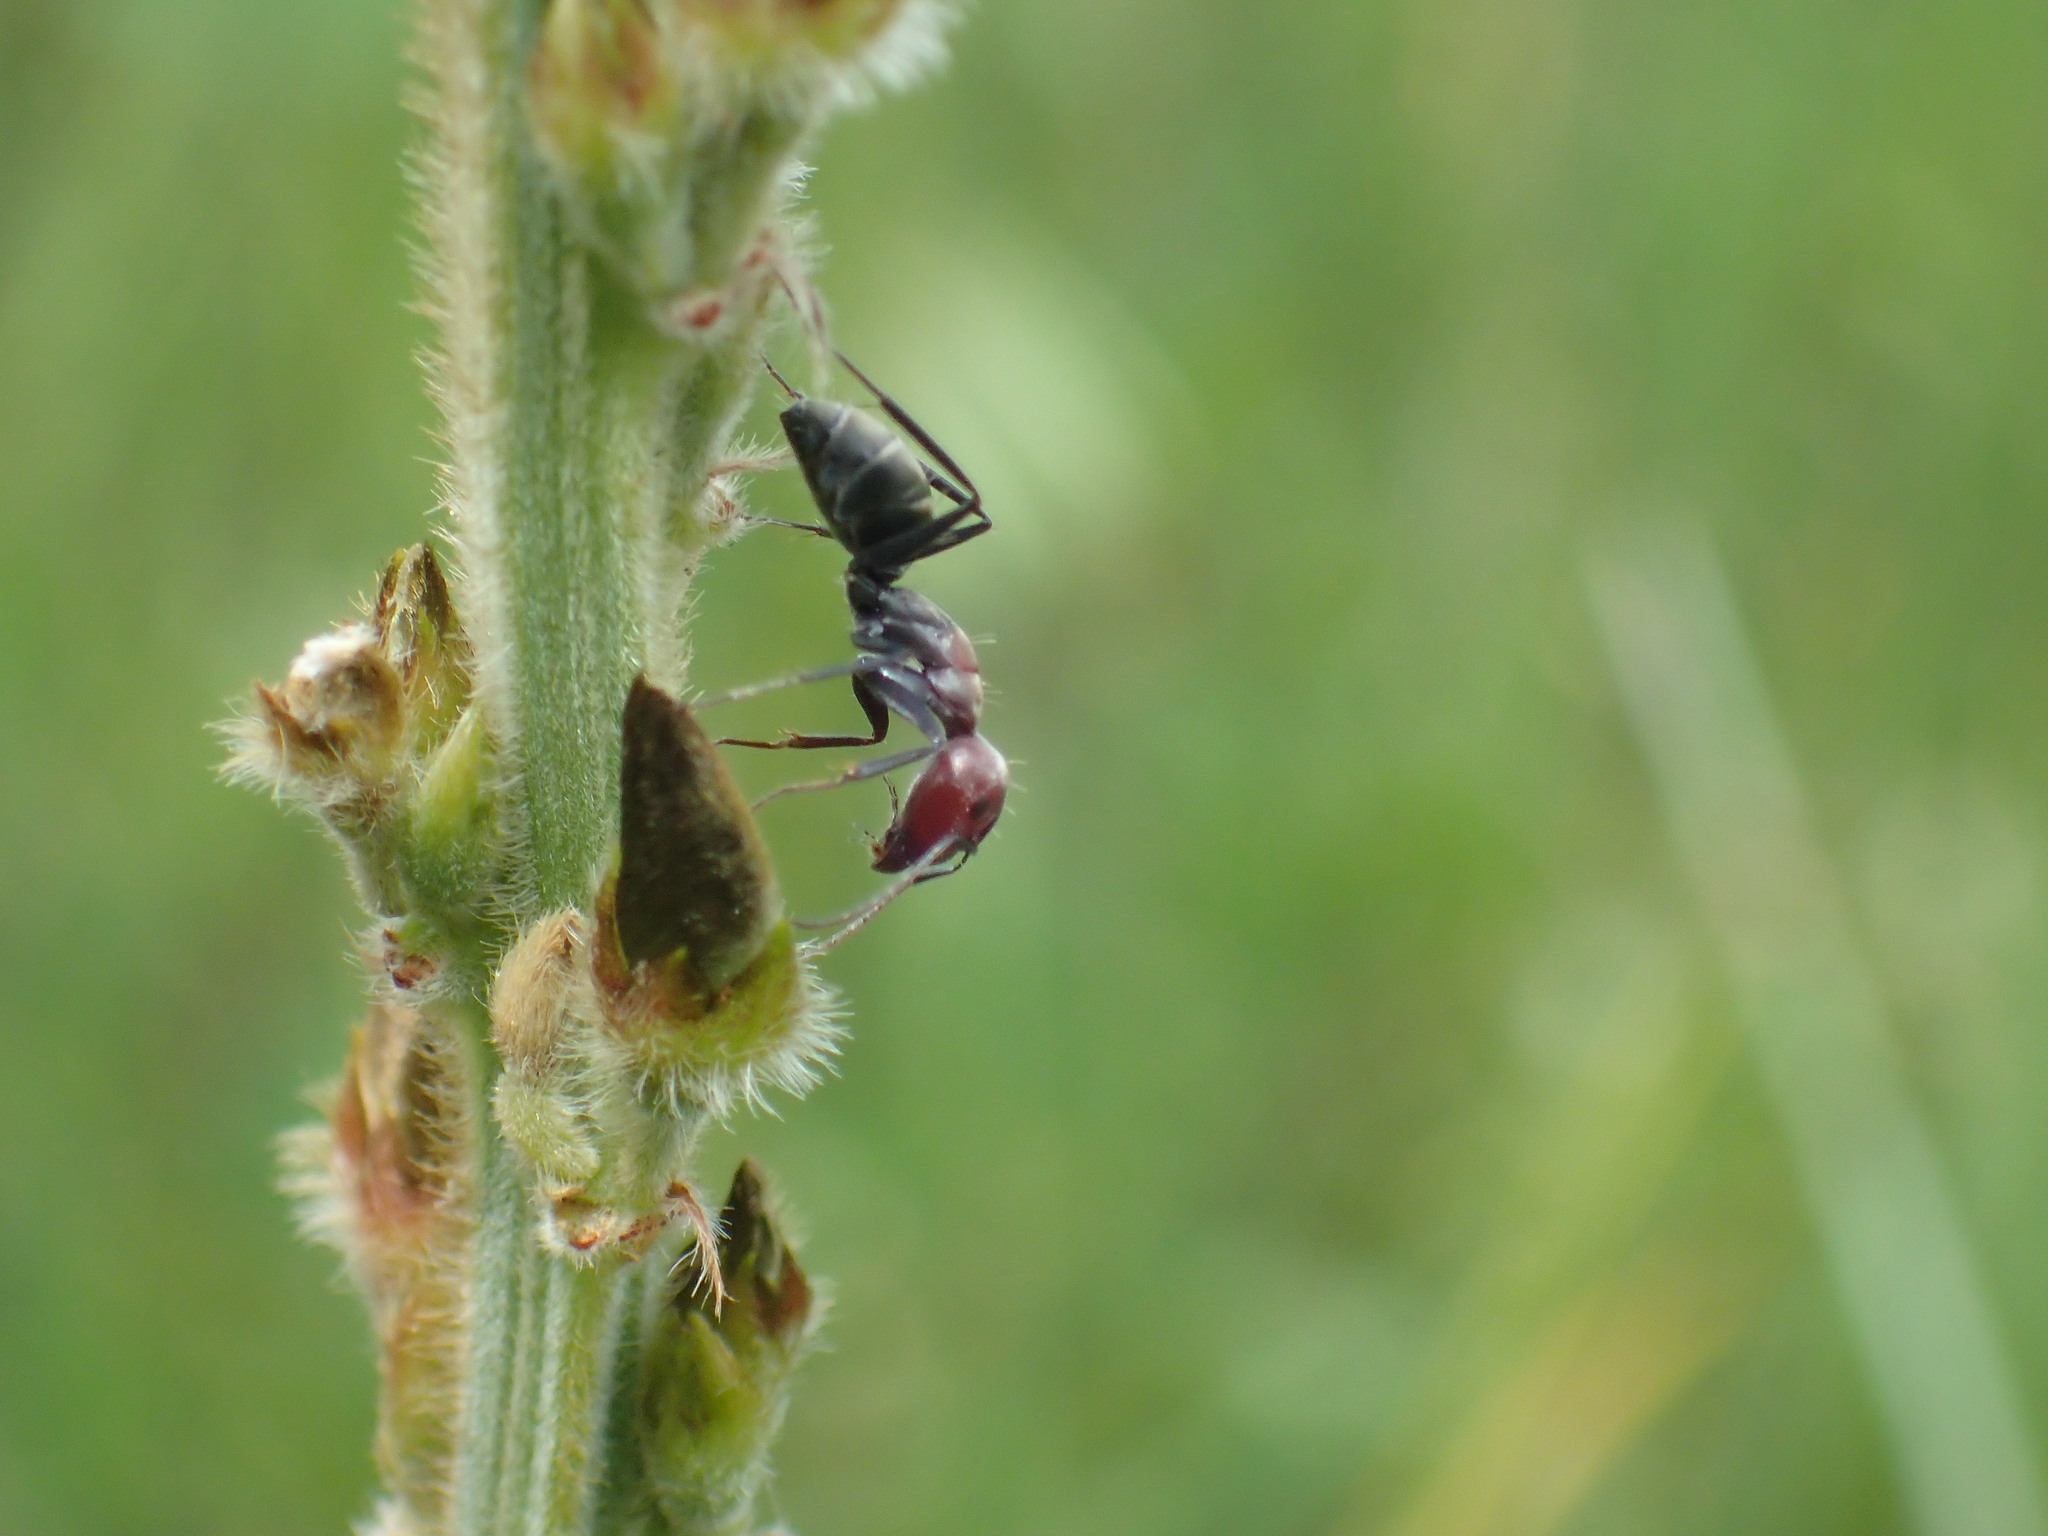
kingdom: Animalia
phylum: Arthropoda
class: Insecta
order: Hymenoptera
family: Formicidae
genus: Camponotus
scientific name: Camponotus rufoglaucus
